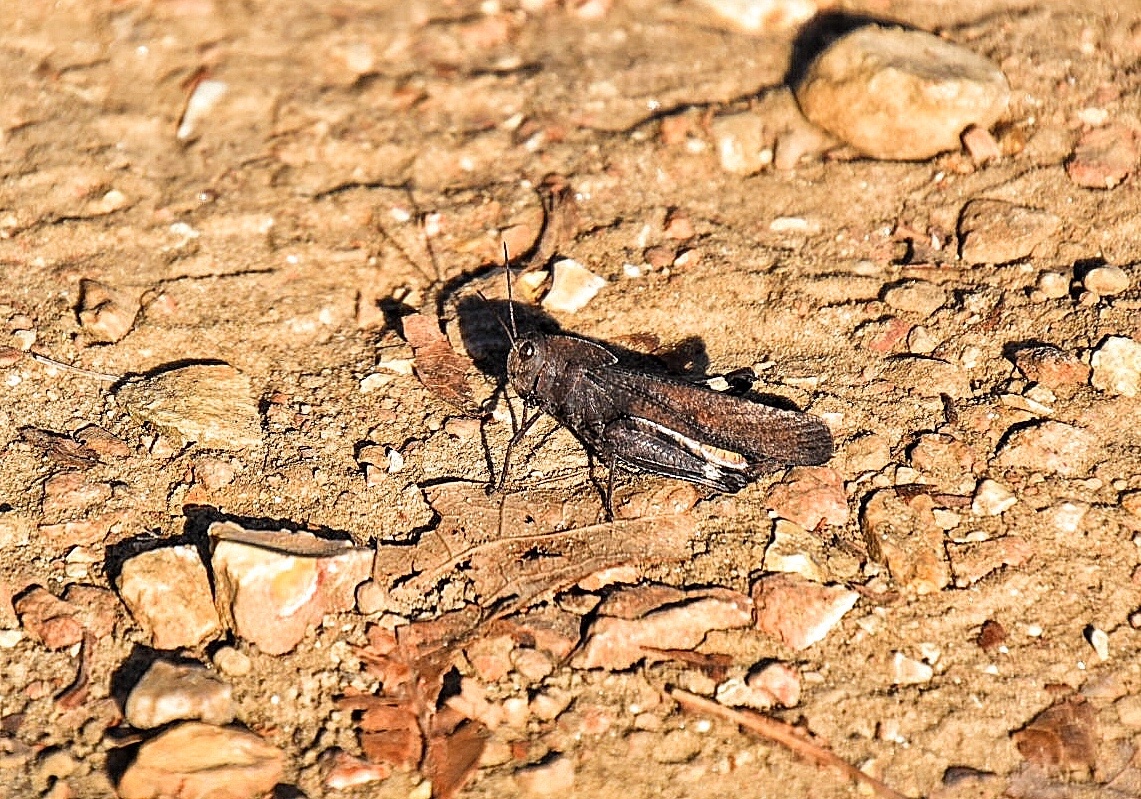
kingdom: Animalia
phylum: Arthropoda
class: Insecta
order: Orthoptera
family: Acrididae
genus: Arphia
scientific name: Arphia xanthoptera
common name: Autumn yellow-winged grasshopper
